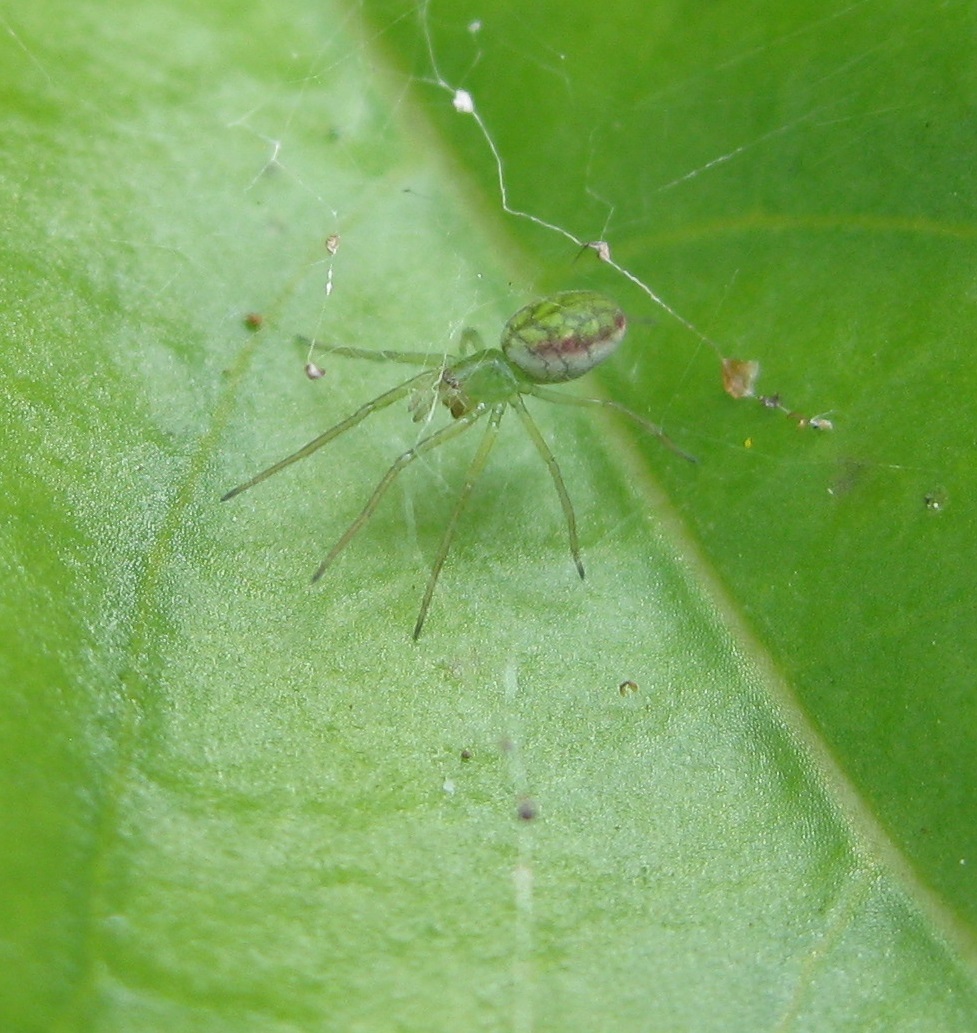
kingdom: Animalia
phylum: Arthropoda
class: Arachnida
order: Araneae
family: Dictynidae
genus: Paradictyna
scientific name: Paradictyna ilamia
